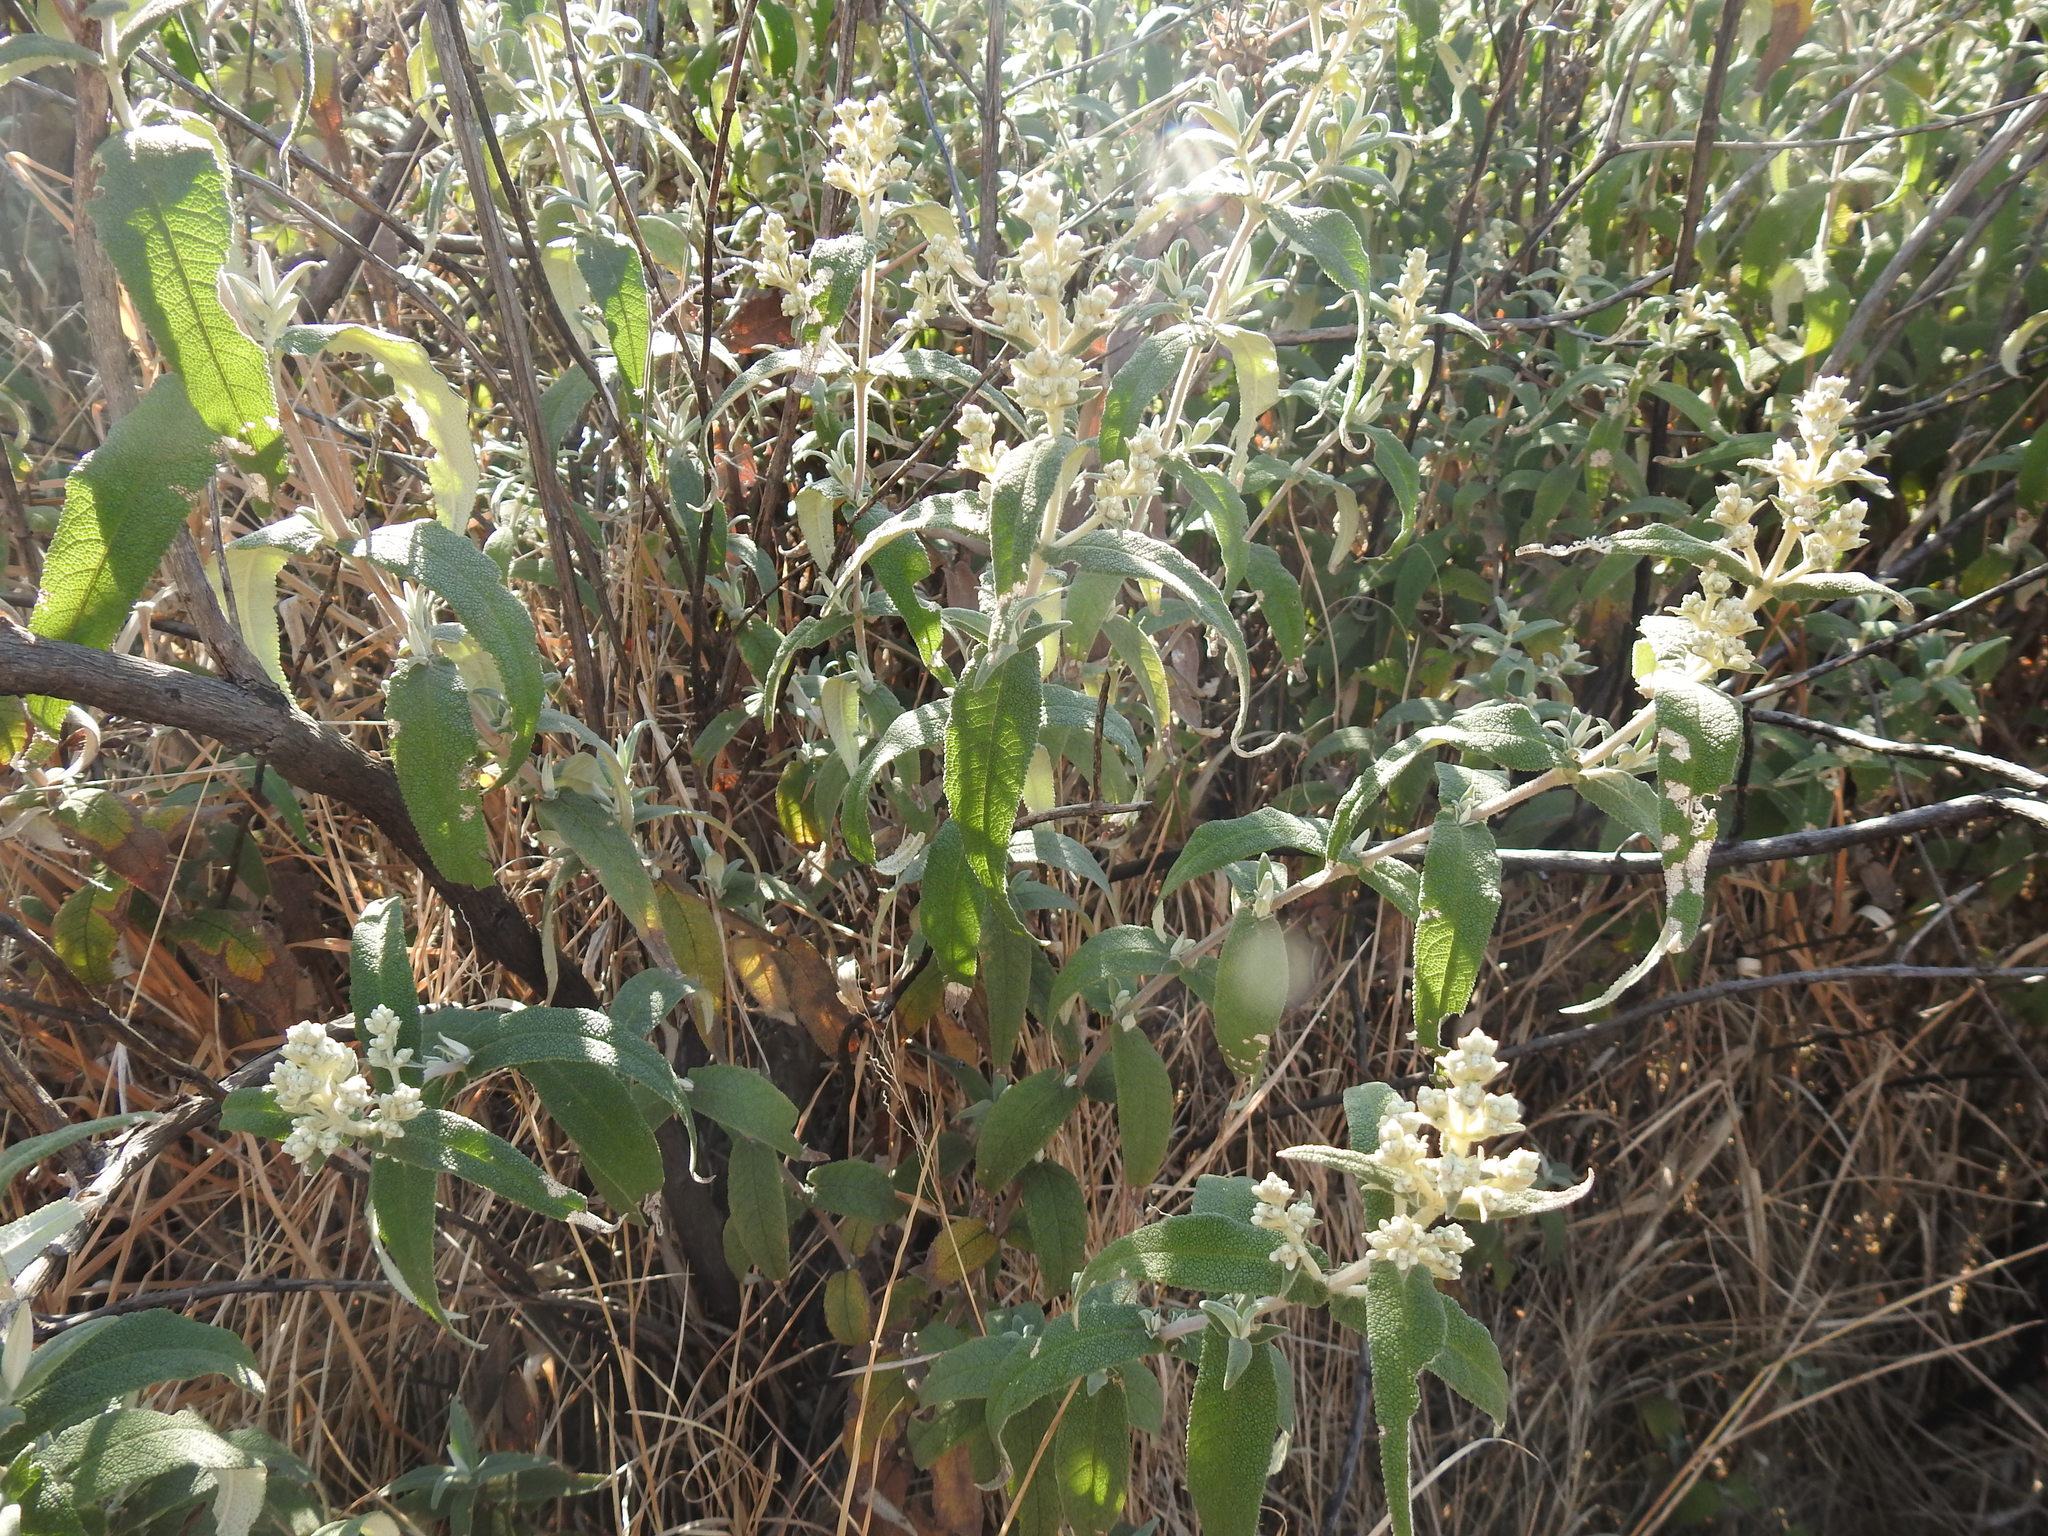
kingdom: Plantae
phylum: Tracheophyta
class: Magnoliopsida
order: Lamiales
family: Scrophulariaceae
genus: Buddleja
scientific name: Buddleja salviifolia
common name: Sagewood
